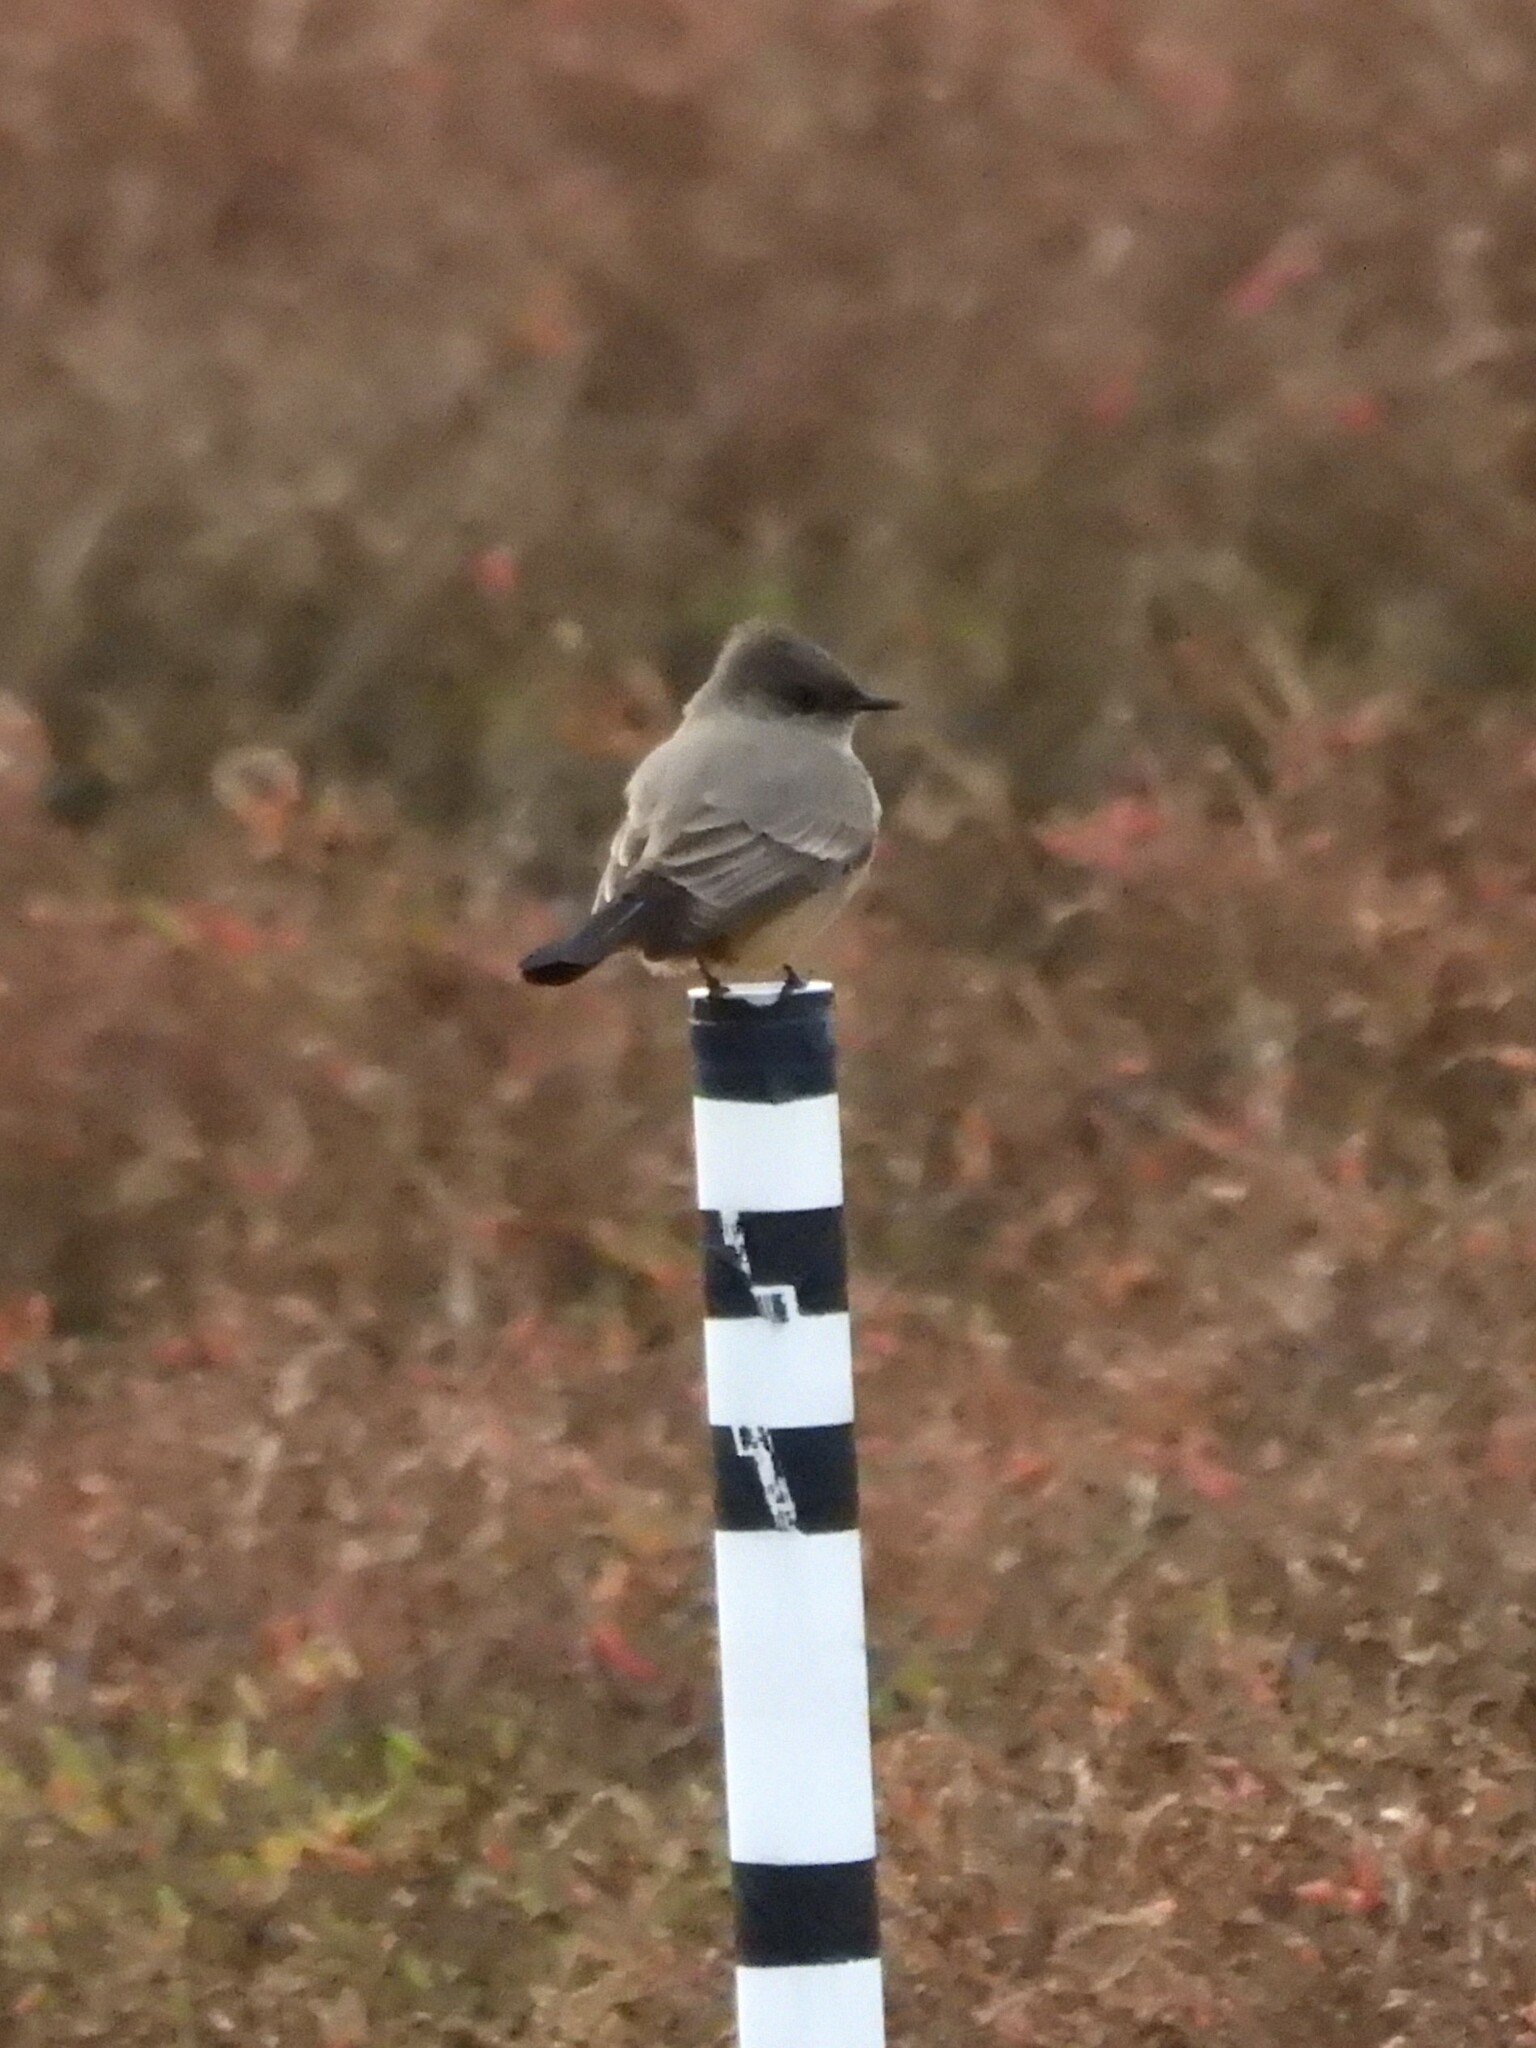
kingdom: Animalia
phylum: Chordata
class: Aves
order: Passeriformes
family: Tyrannidae
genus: Sayornis
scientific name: Sayornis saya
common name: Say's phoebe
